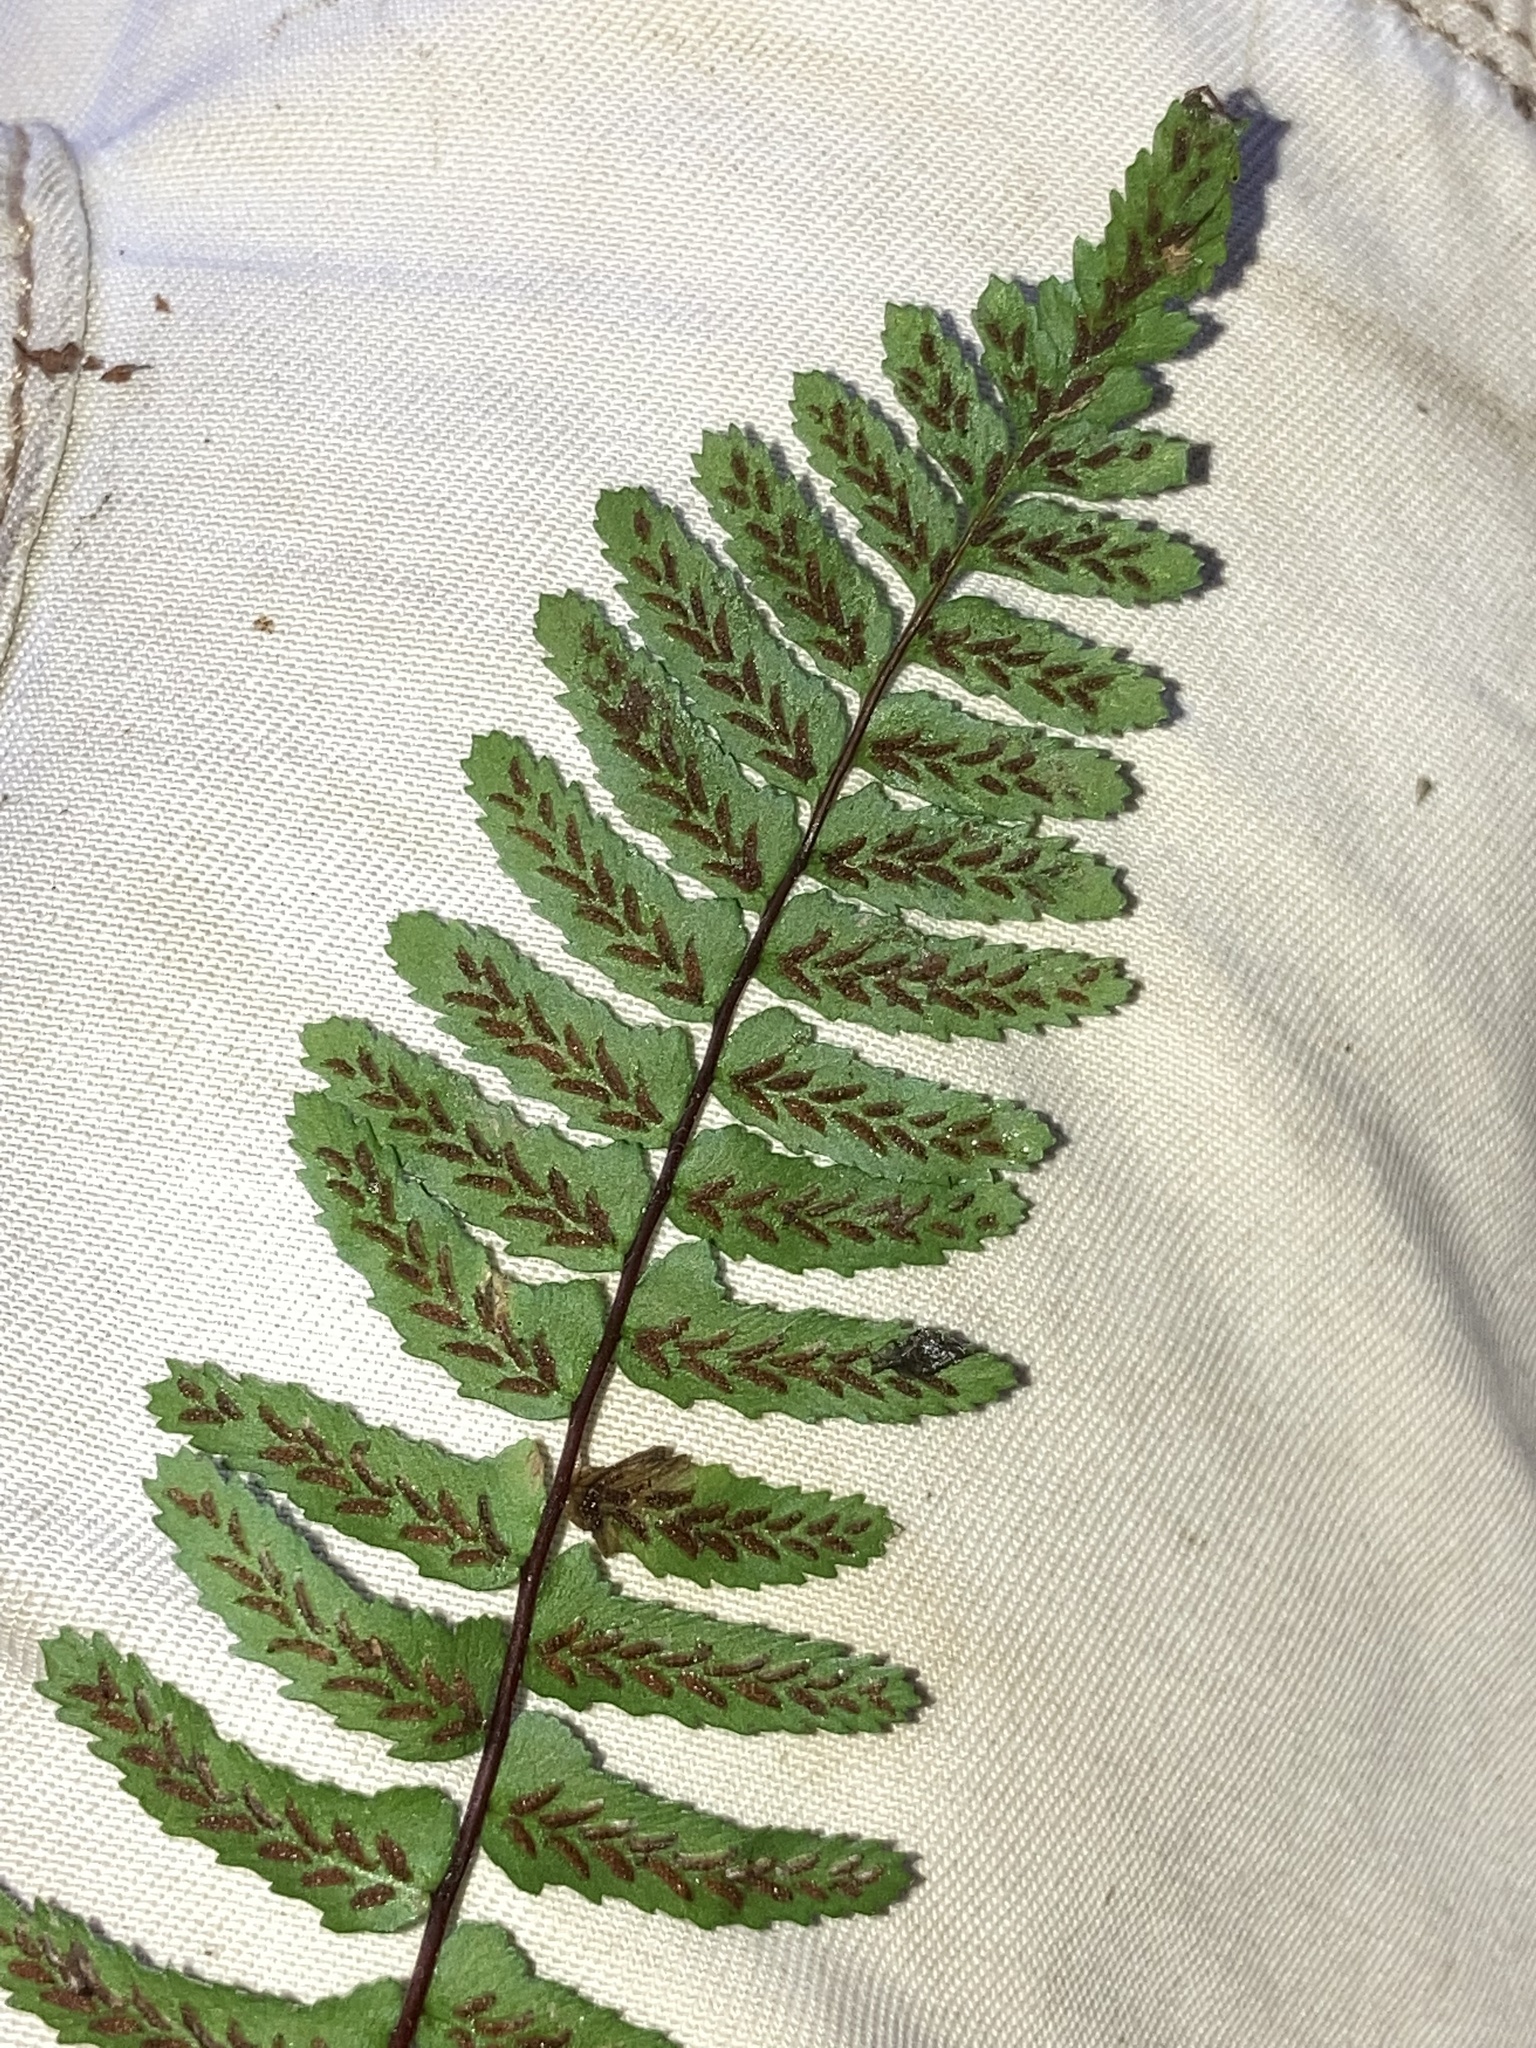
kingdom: Plantae
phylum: Tracheophyta
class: Polypodiopsida
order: Polypodiales
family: Aspleniaceae
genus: Asplenium
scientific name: Asplenium platyneuron
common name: Ebony spleenwort
